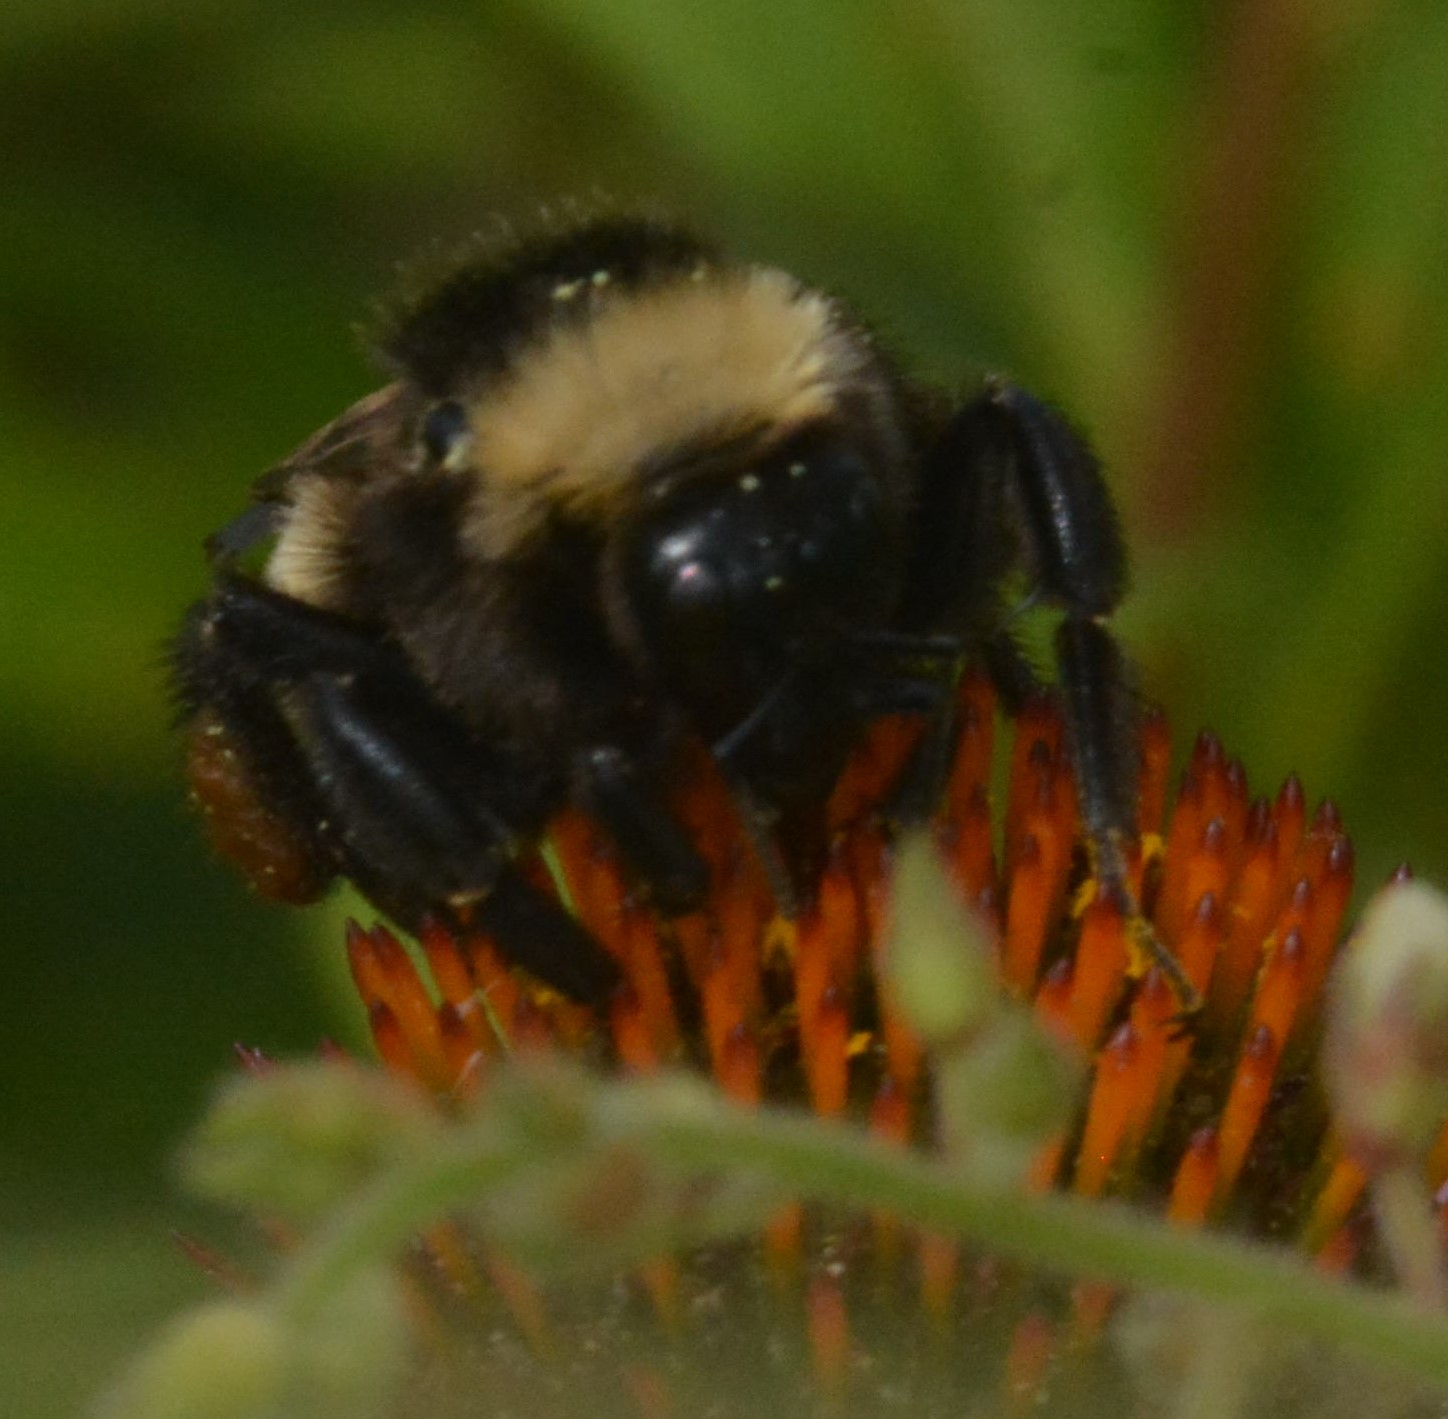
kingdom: Animalia
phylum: Arthropoda
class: Insecta
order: Hymenoptera
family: Apidae
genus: Bombus
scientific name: Bombus pensylvanicus
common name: Bumble bee
